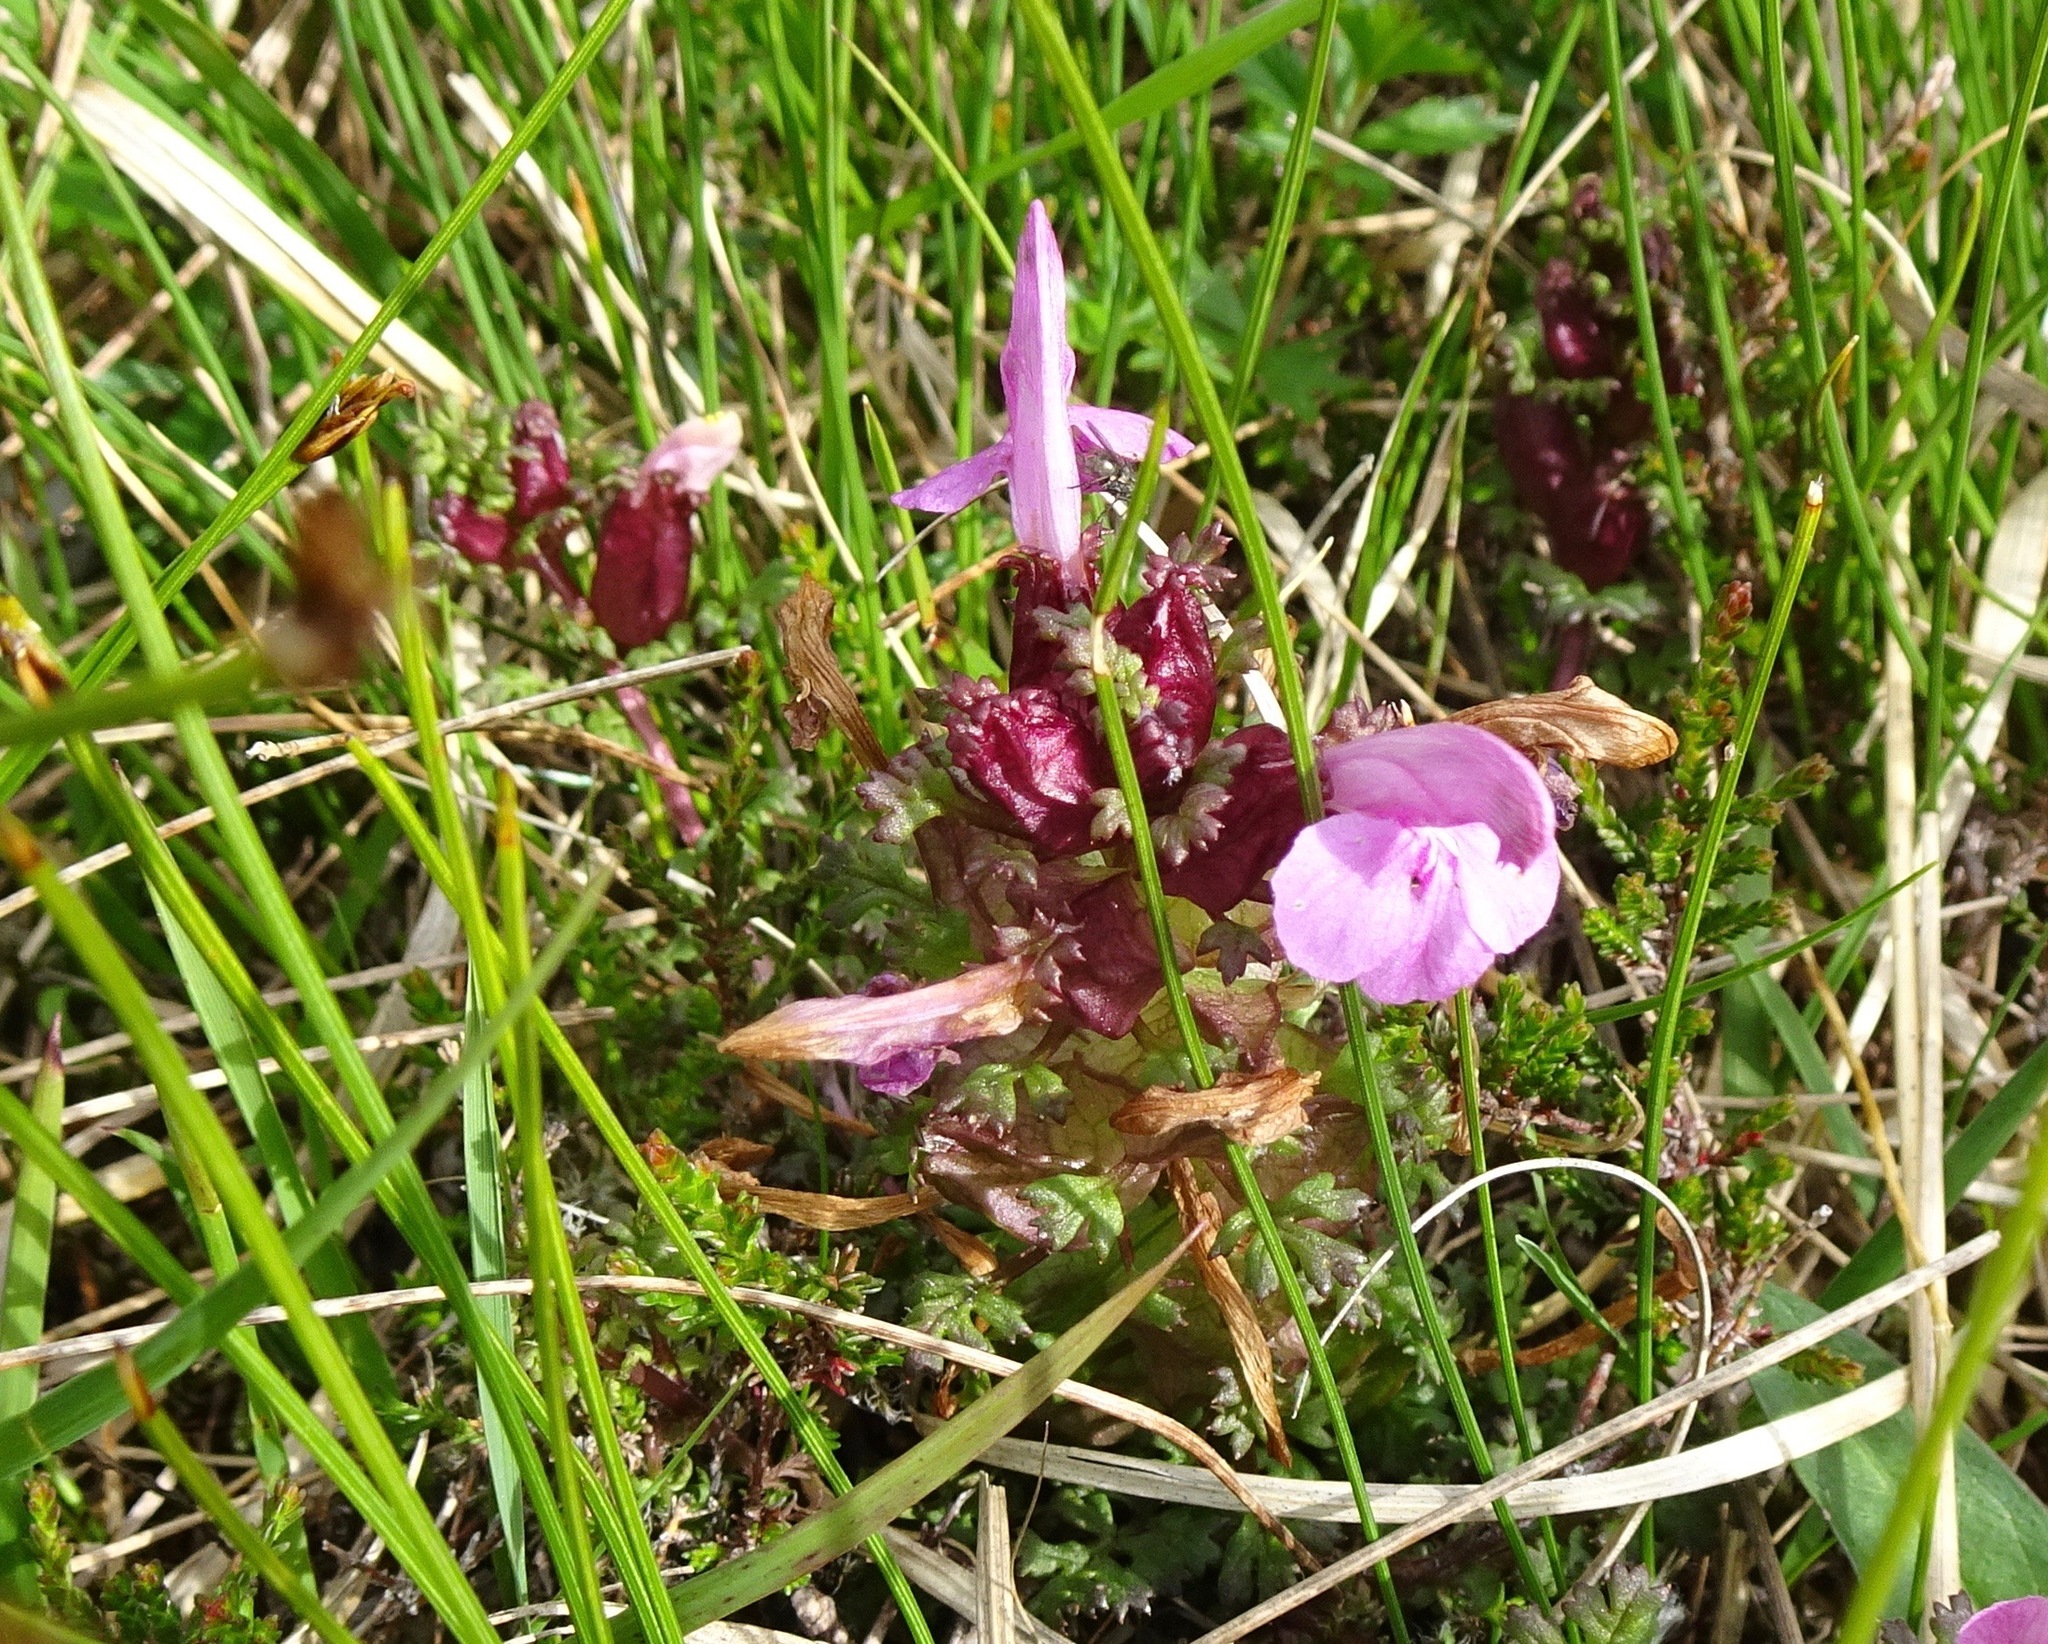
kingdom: Plantae
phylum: Tracheophyta
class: Magnoliopsida
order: Lamiales
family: Orobanchaceae
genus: Pedicularis
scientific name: Pedicularis sylvatica
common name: Lousewort
